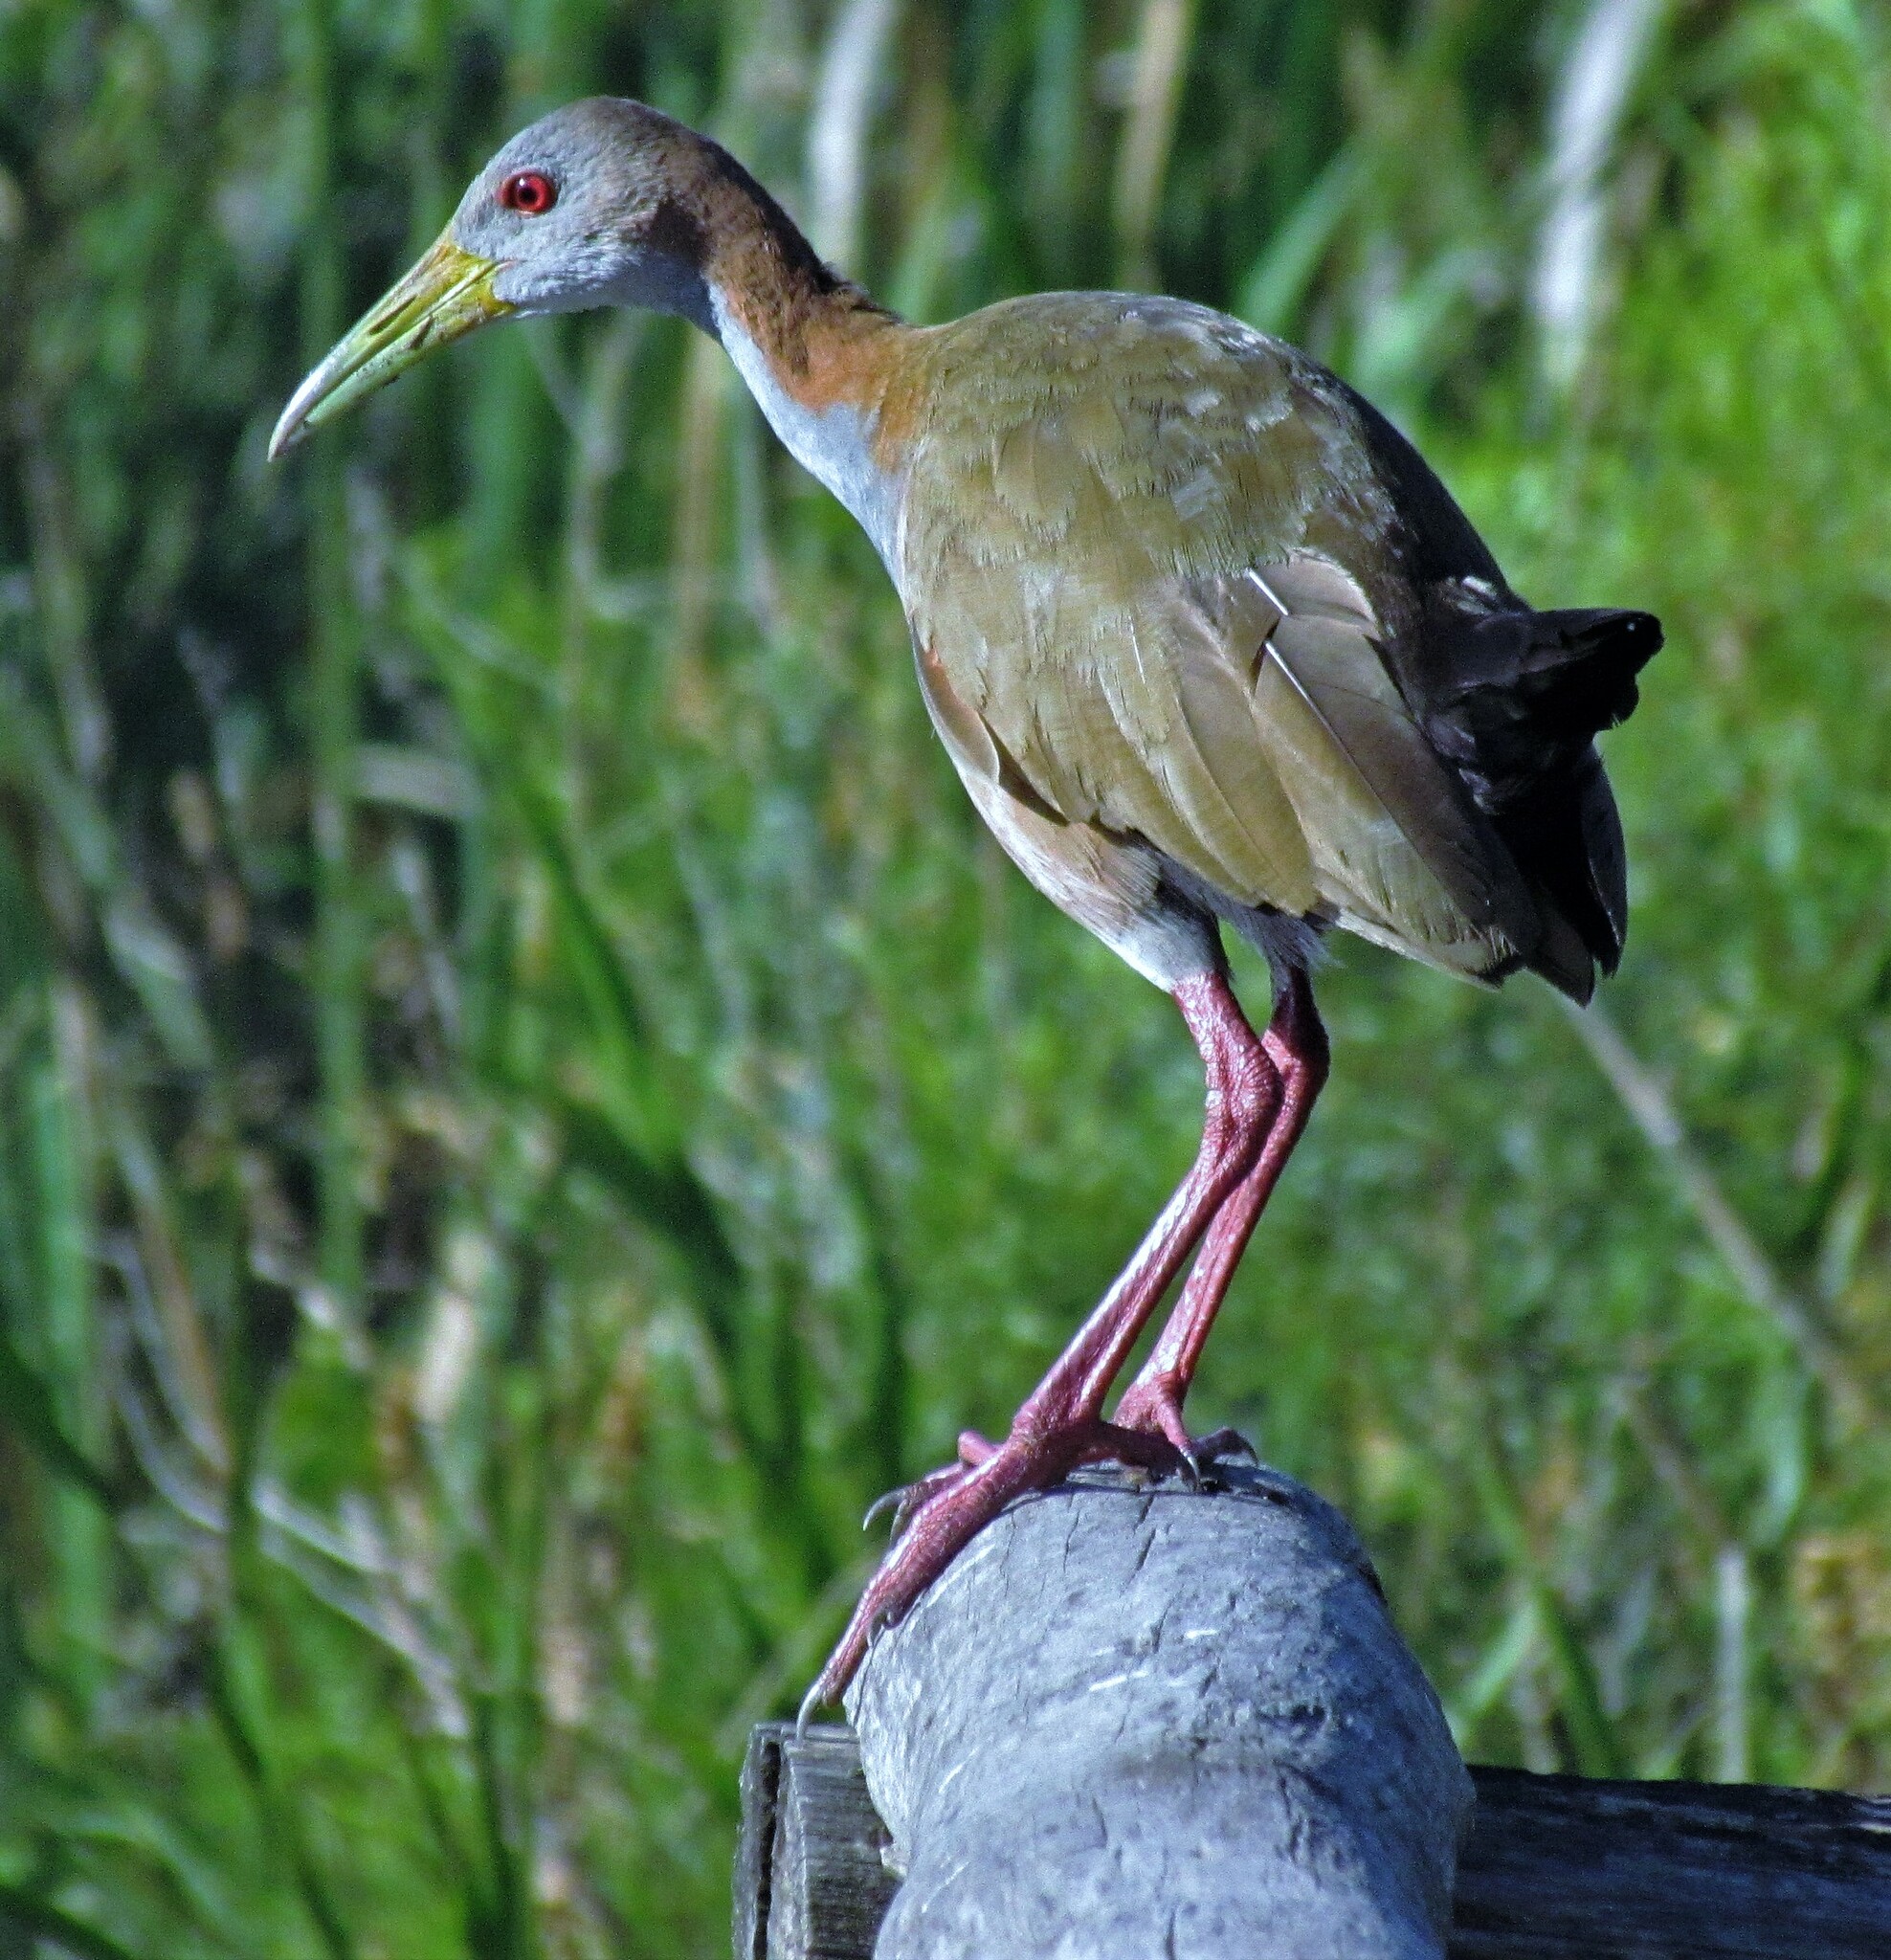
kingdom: Animalia
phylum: Chordata
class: Aves
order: Gruiformes
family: Rallidae
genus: Aramides
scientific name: Aramides ypecaha
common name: Giant wood rail
